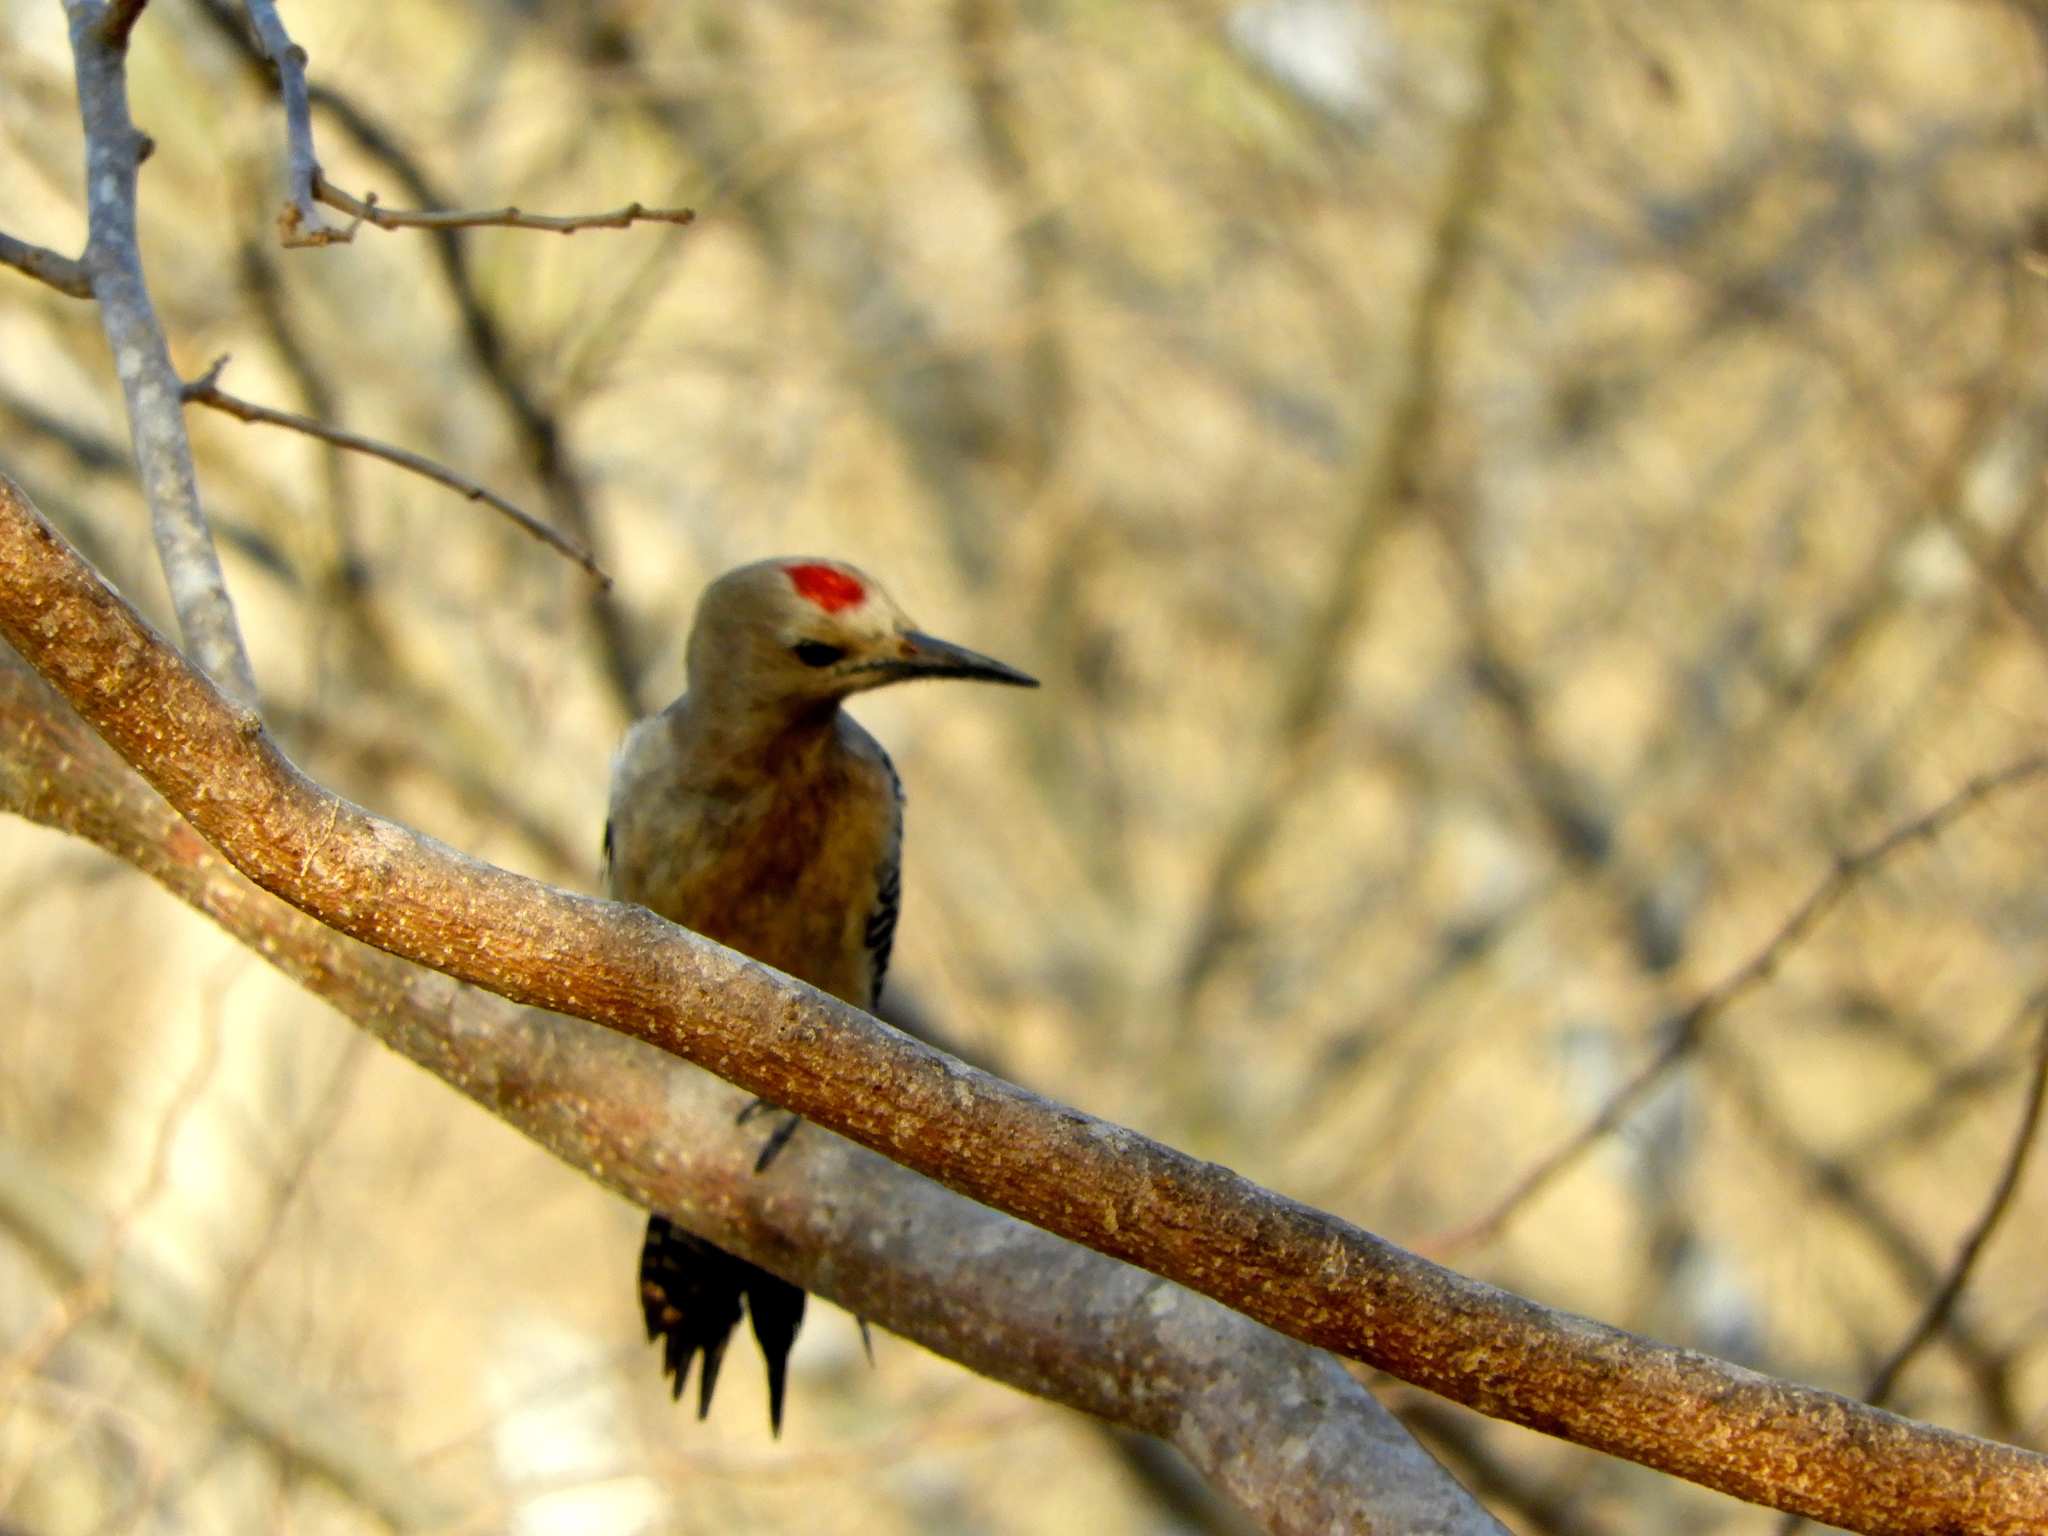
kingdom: Animalia
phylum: Chordata
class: Aves
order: Piciformes
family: Picidae
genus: Melanerpes
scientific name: Melanerpes uropygialis
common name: Gila woodpecker
